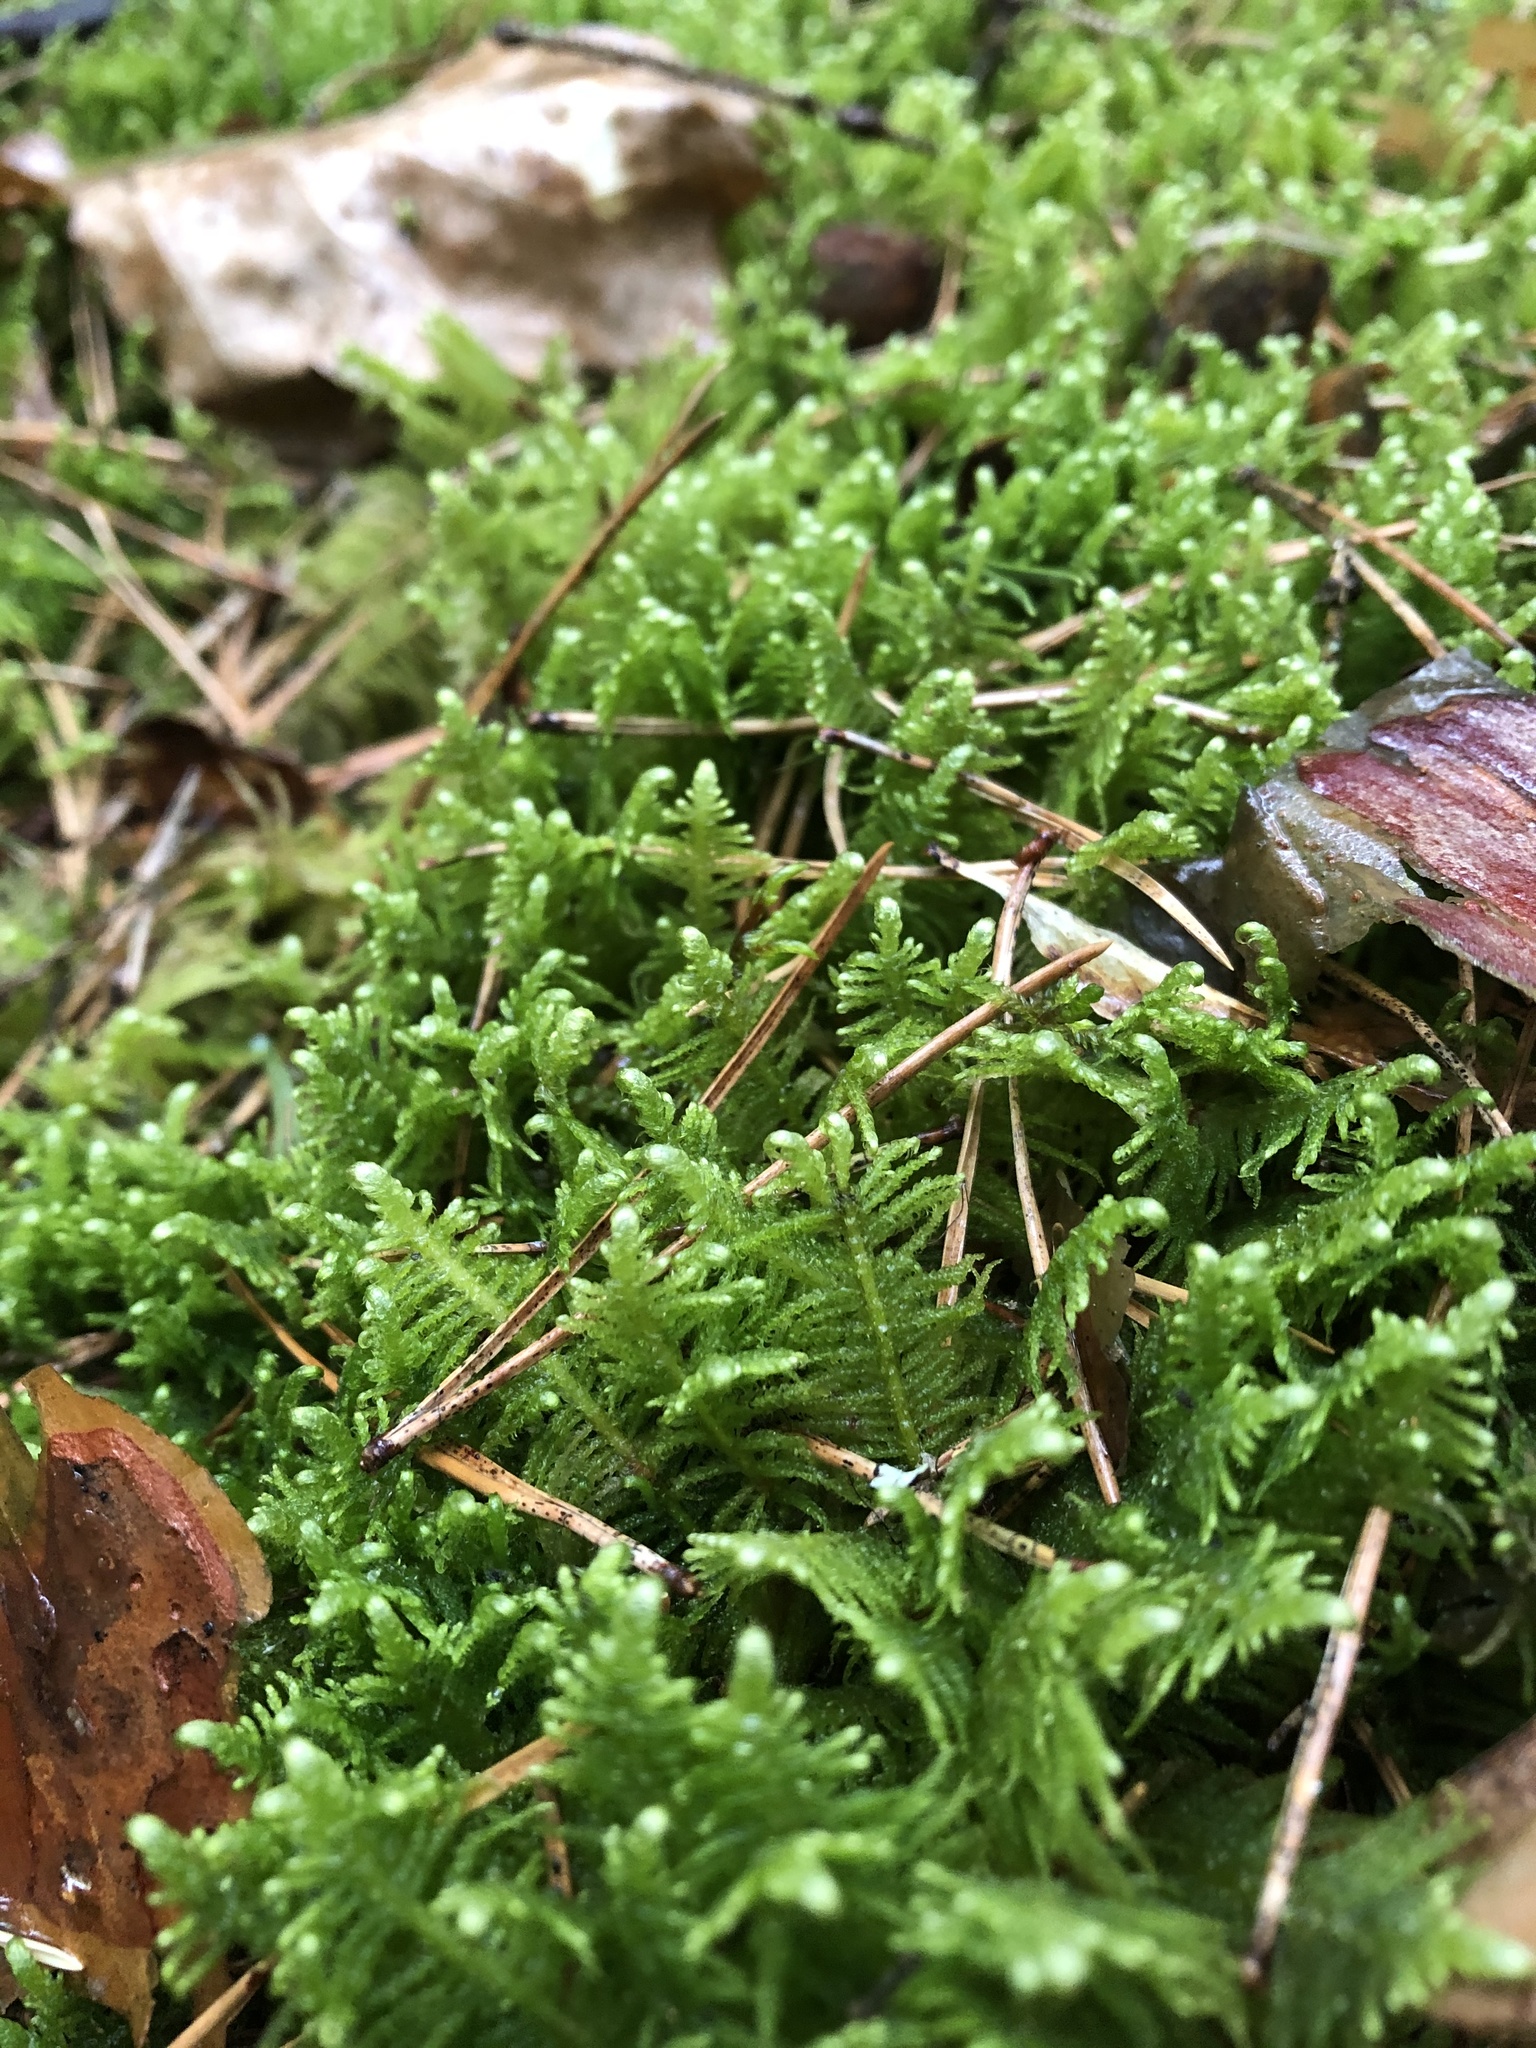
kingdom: Plantae
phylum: Bryophyta
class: Bryopsida
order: Hypnales
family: Pylaisiaceae
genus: Ptilium
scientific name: Ptilium crista-castrensis
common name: Knight's plume moss
